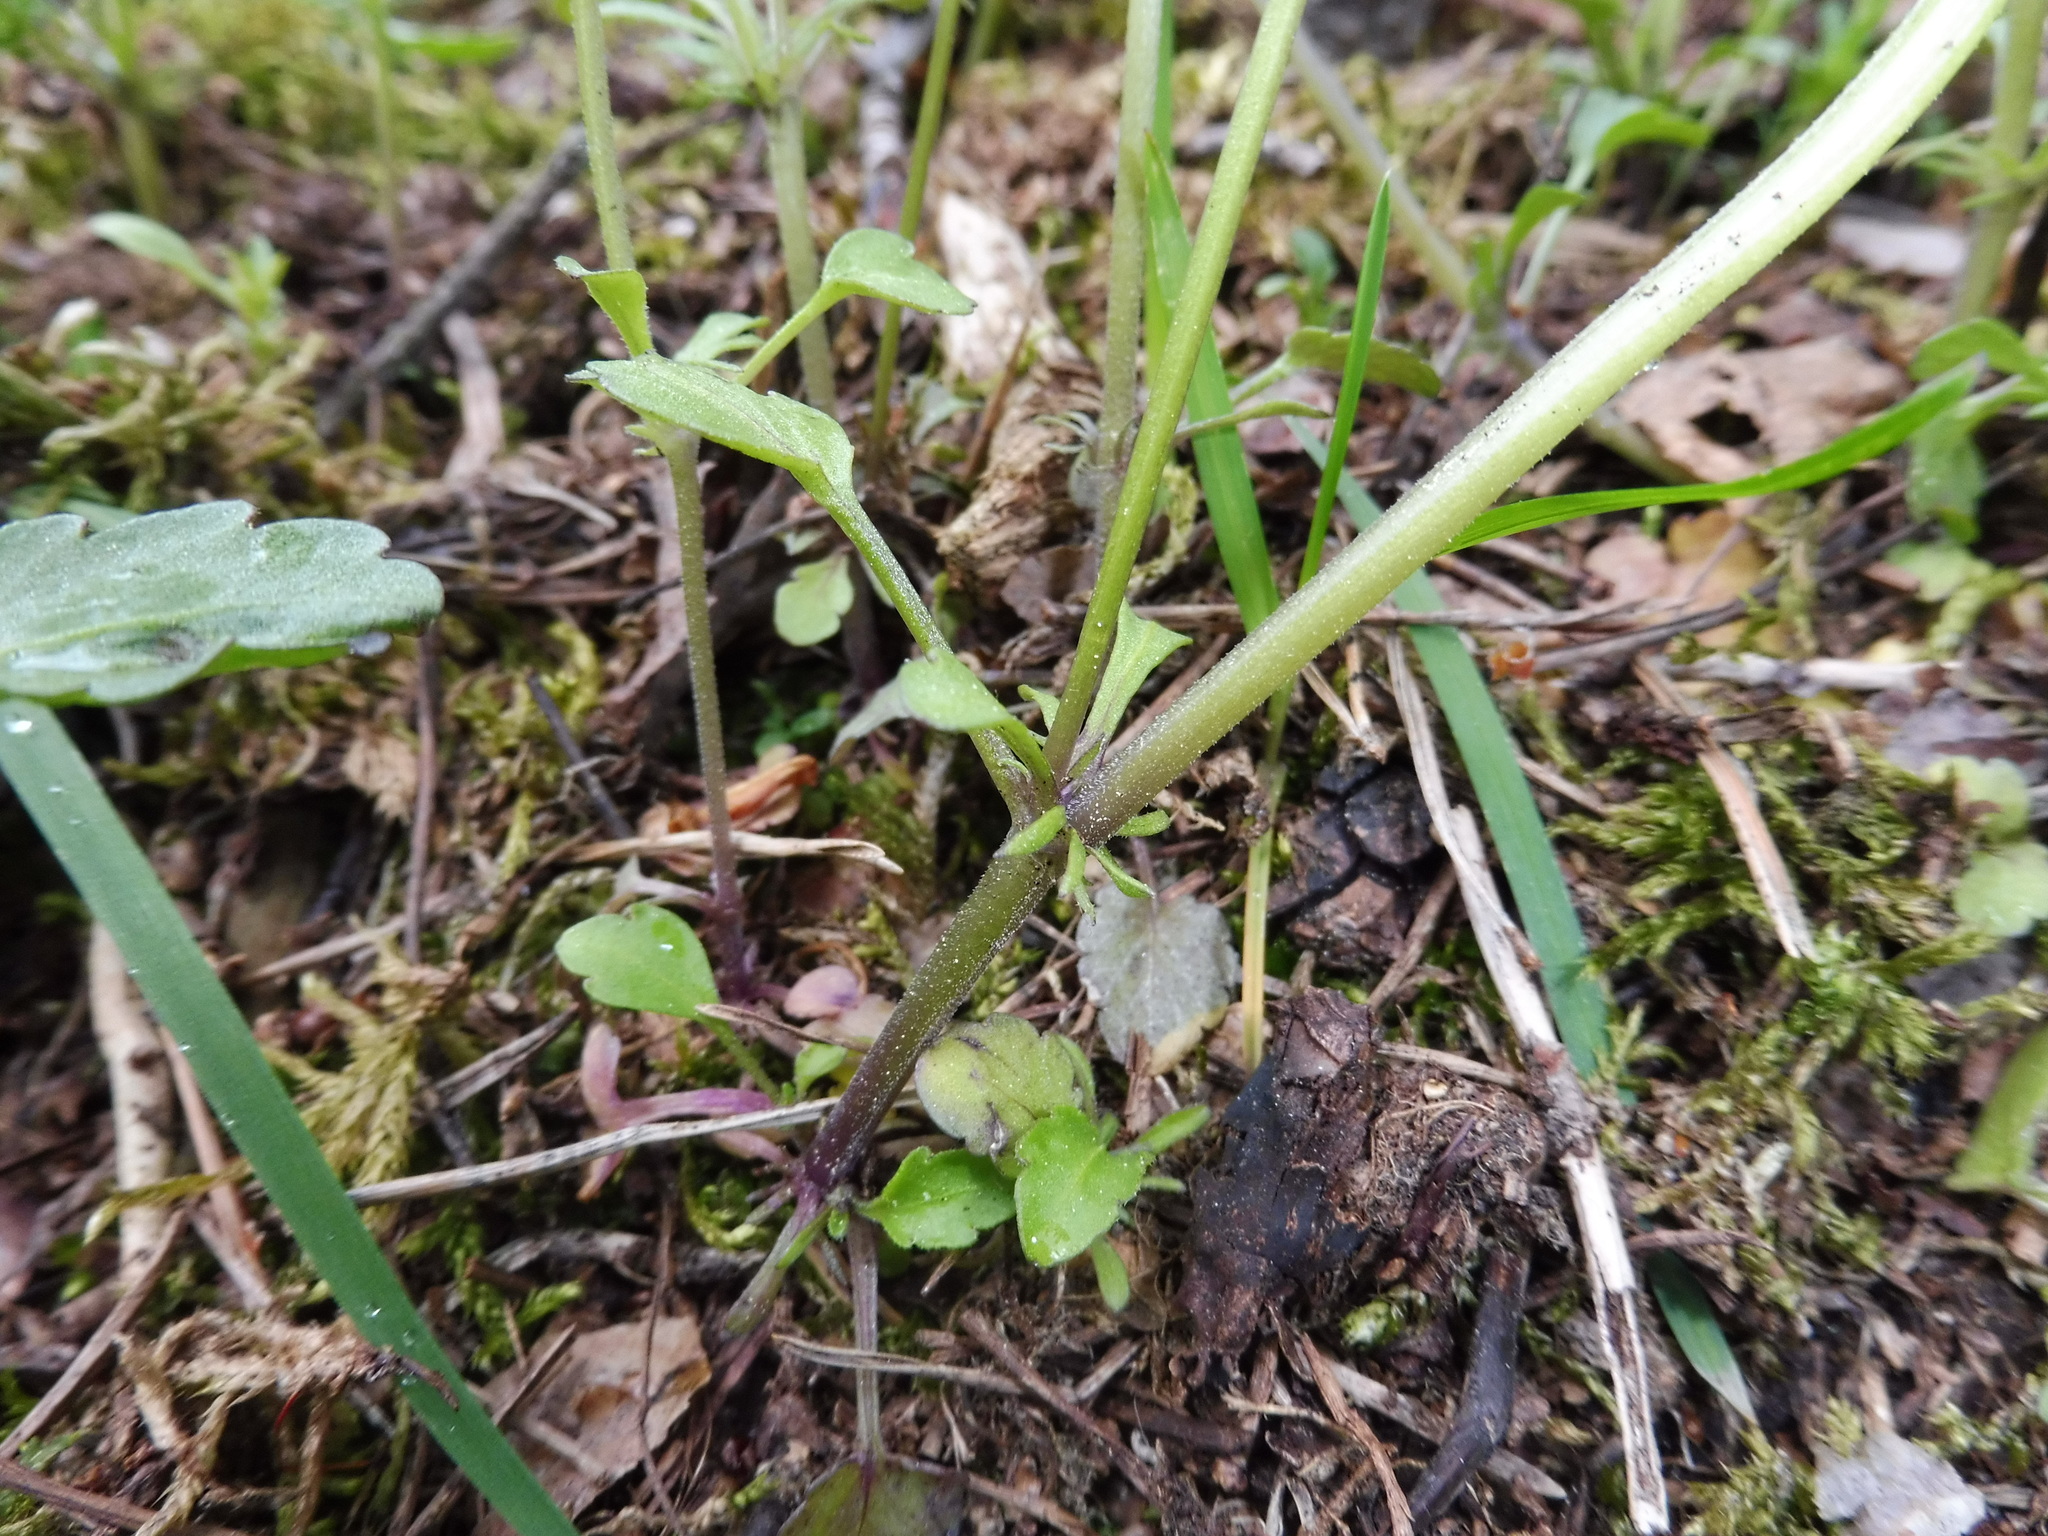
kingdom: Plantae
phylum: Tracheophyta
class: Magnoliopsida
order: Malpighiales
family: Violaceae
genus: Viola
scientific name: Viola tricolor
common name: Pansy
